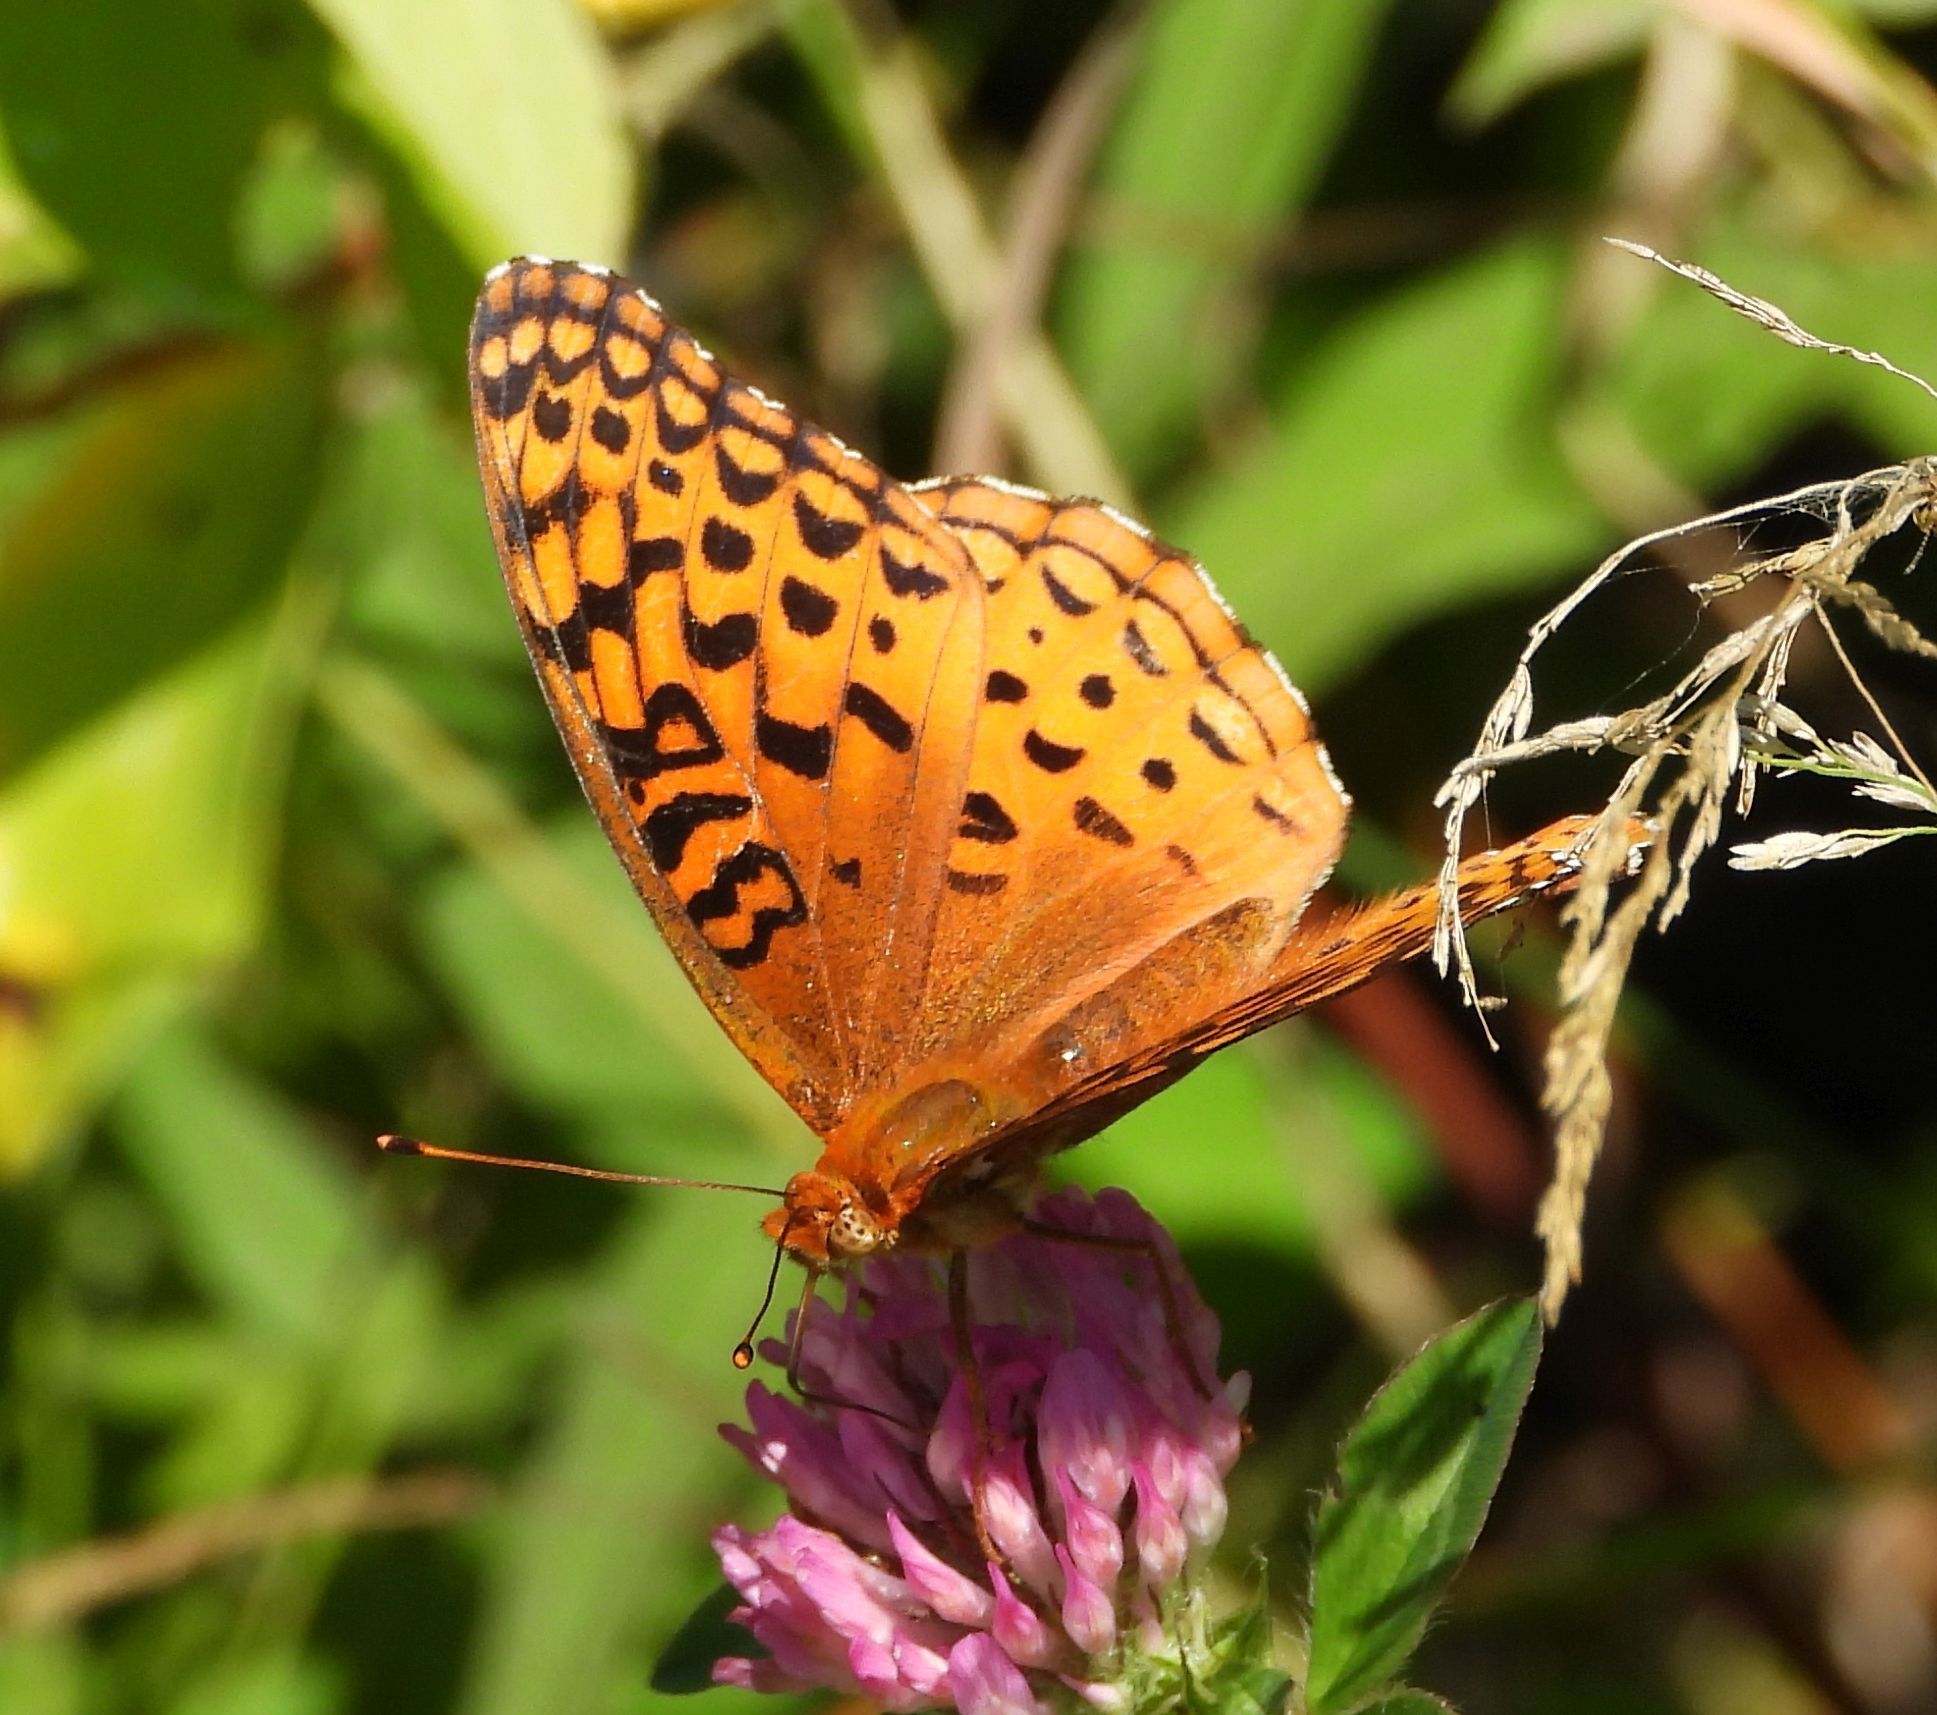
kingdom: Animalia
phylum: Arthropoda
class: Insecta
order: Lepidoptera
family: Nymphalidae
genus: Speyeria
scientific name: Speyeria aphrodite
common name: Aphrodite friitllary
